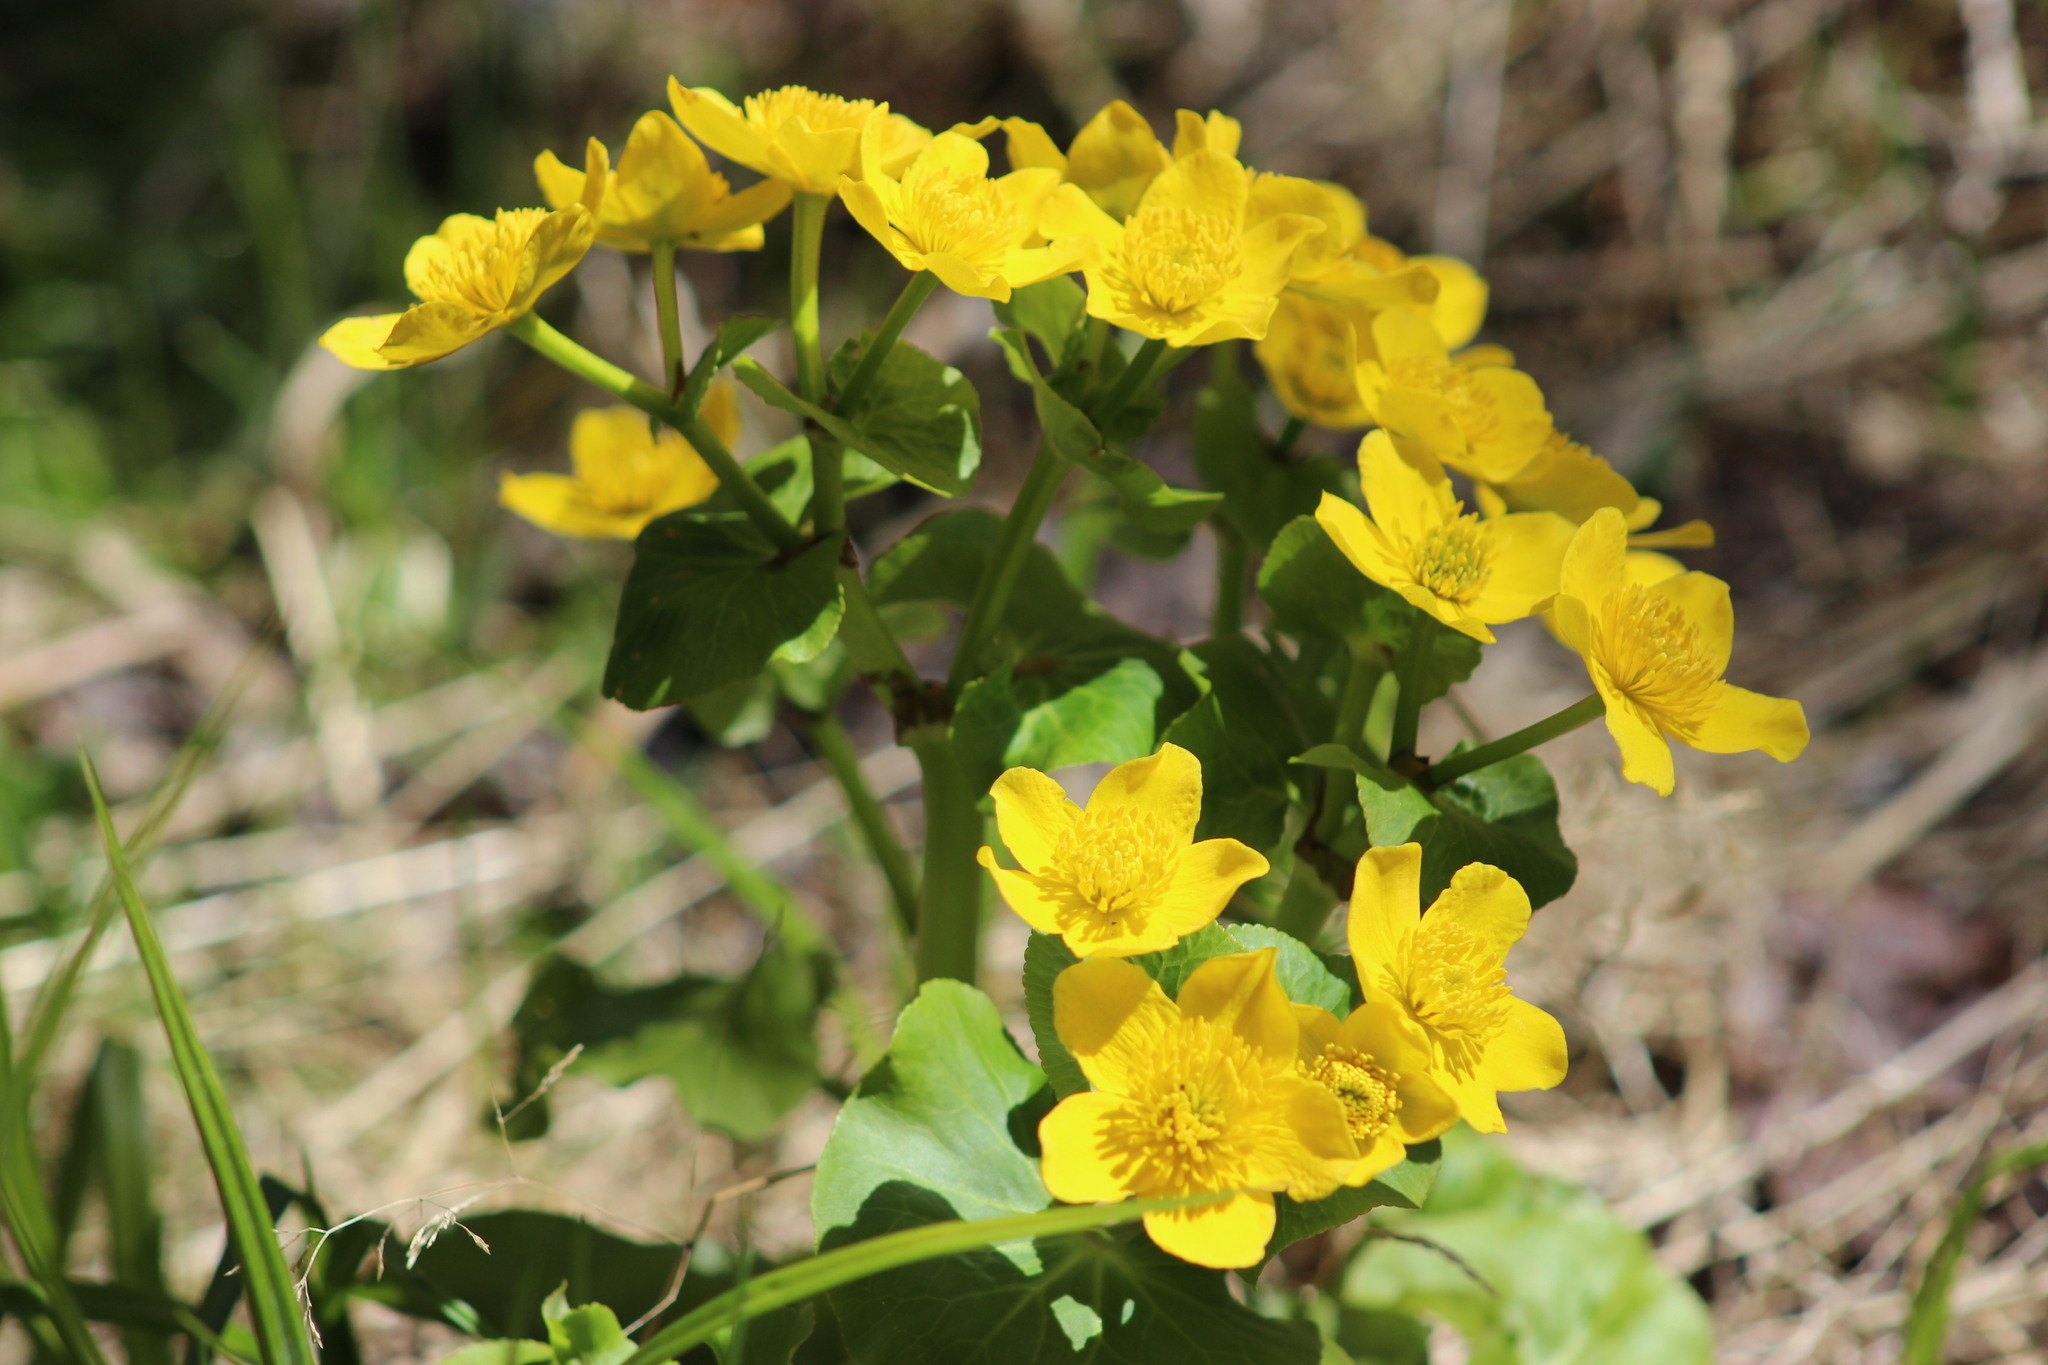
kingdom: Plantae
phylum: Tracheophyta
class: Magnoliopsida
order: Ranunculales
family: Ranunculaceae
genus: Caltha
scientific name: Caltha palustris
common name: Marsh marigold
